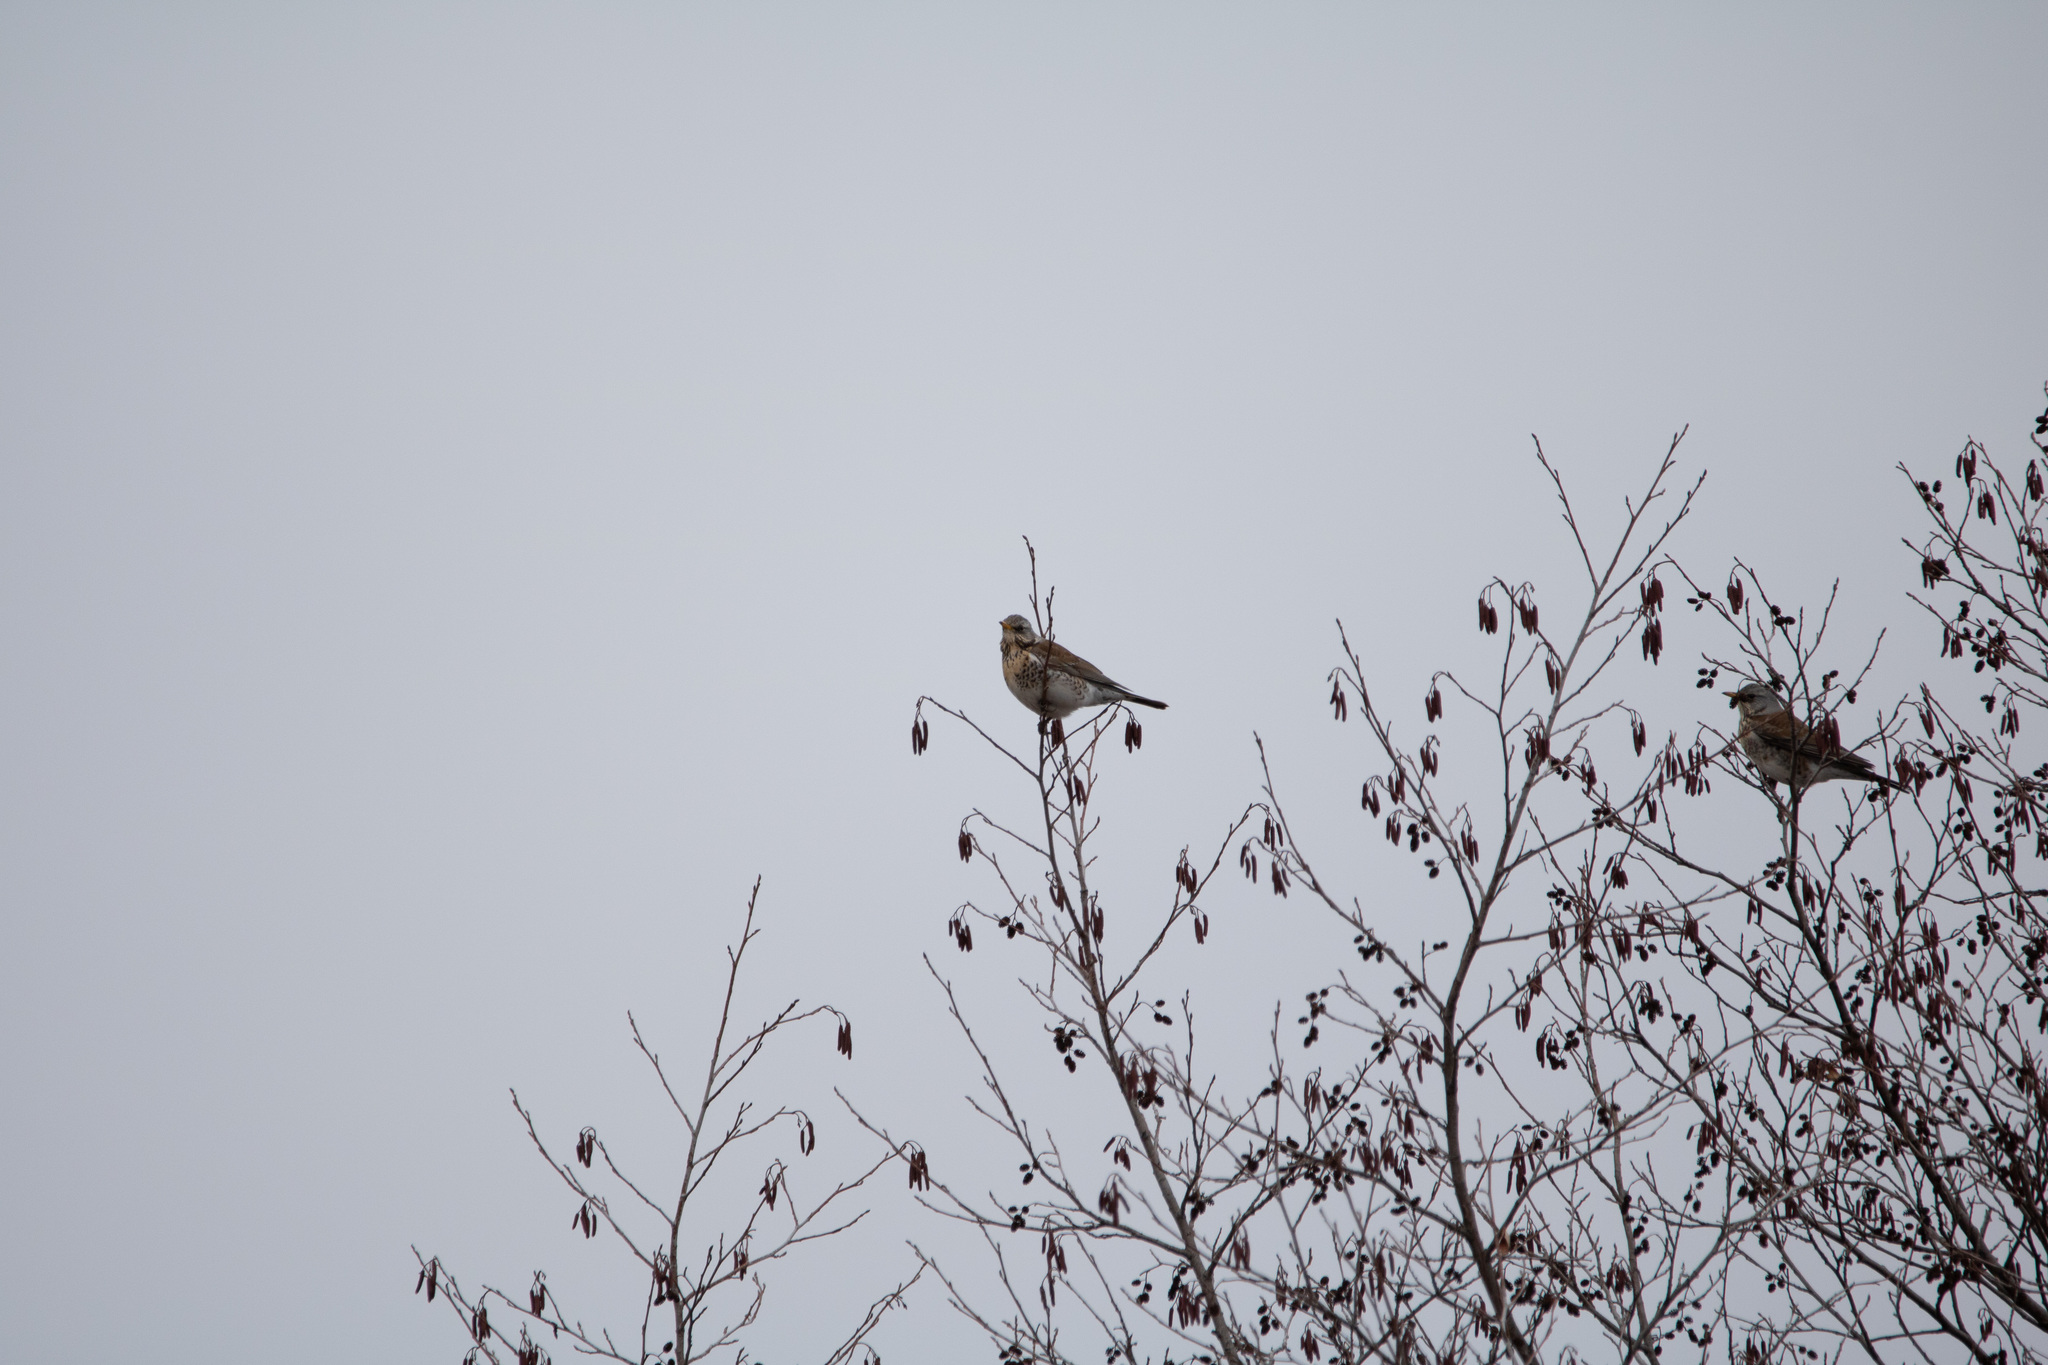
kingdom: Animalia
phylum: Chordata
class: Aves
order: Passeriformes
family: Turdidae
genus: Turdus
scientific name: Turdus pilaris
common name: Fieldfare
